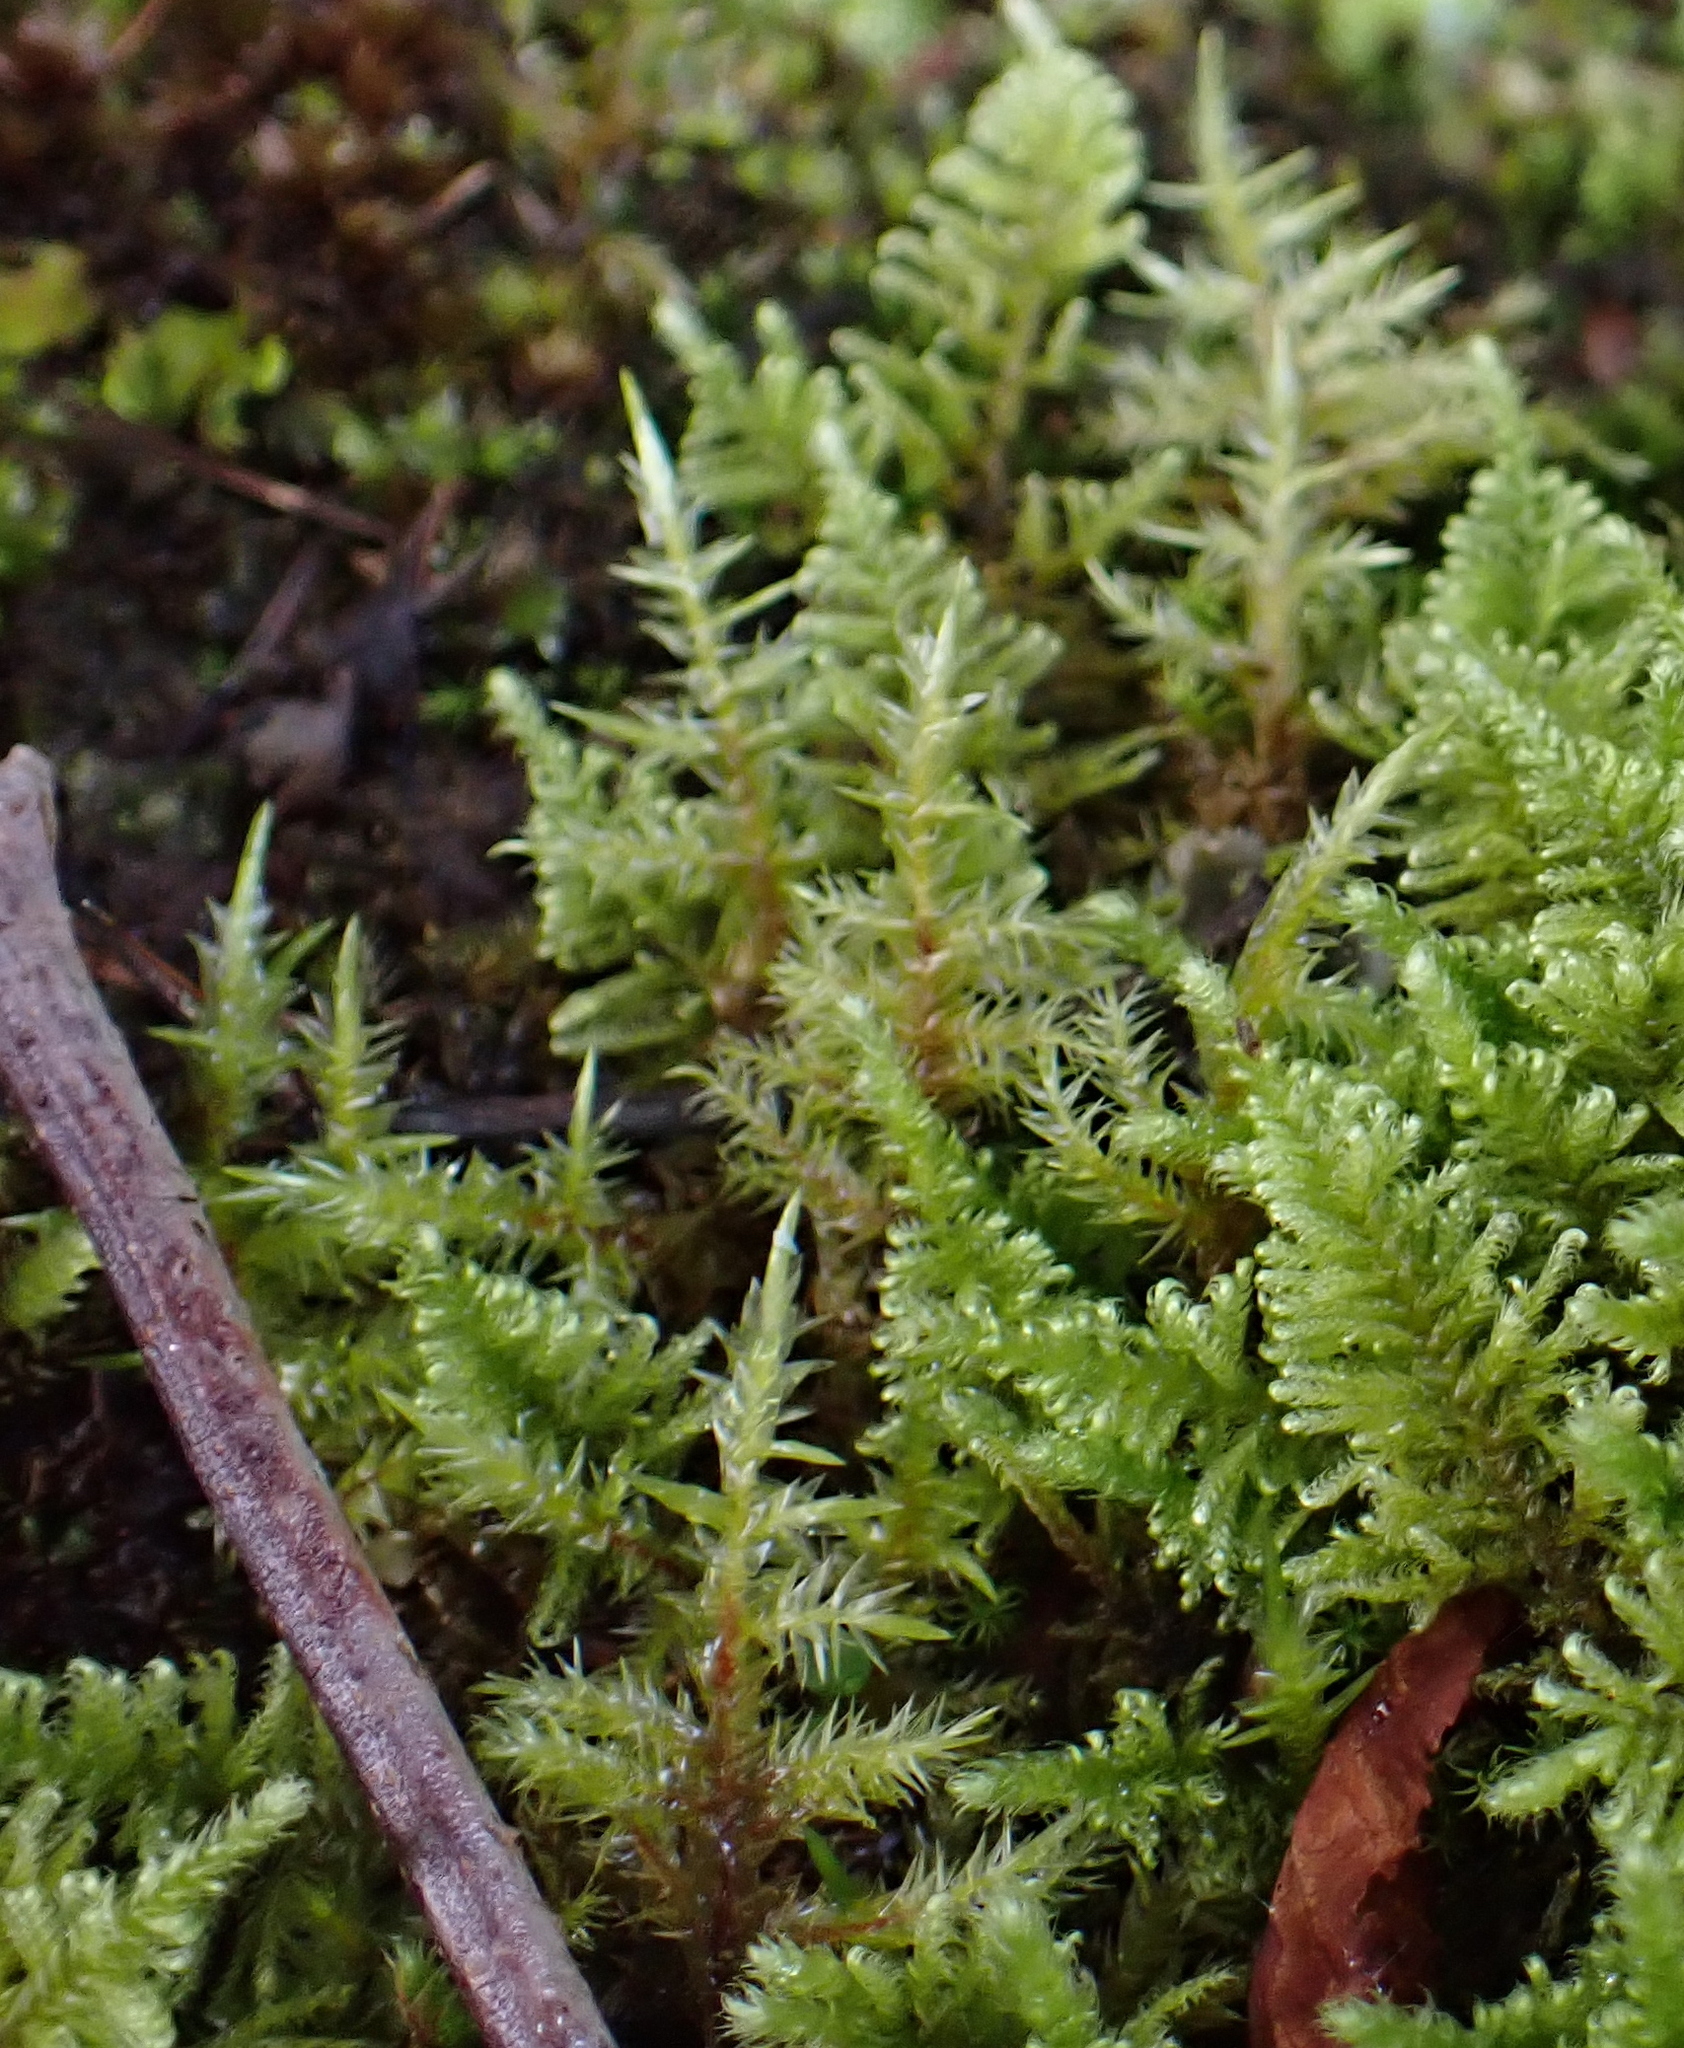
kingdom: Plantae
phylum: Bryophyta
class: Bryopsida
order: Hypnales
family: Pylaisiaceae
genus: Calliergonella
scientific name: Calliergonella cuspidata
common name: Common large wetland moss
